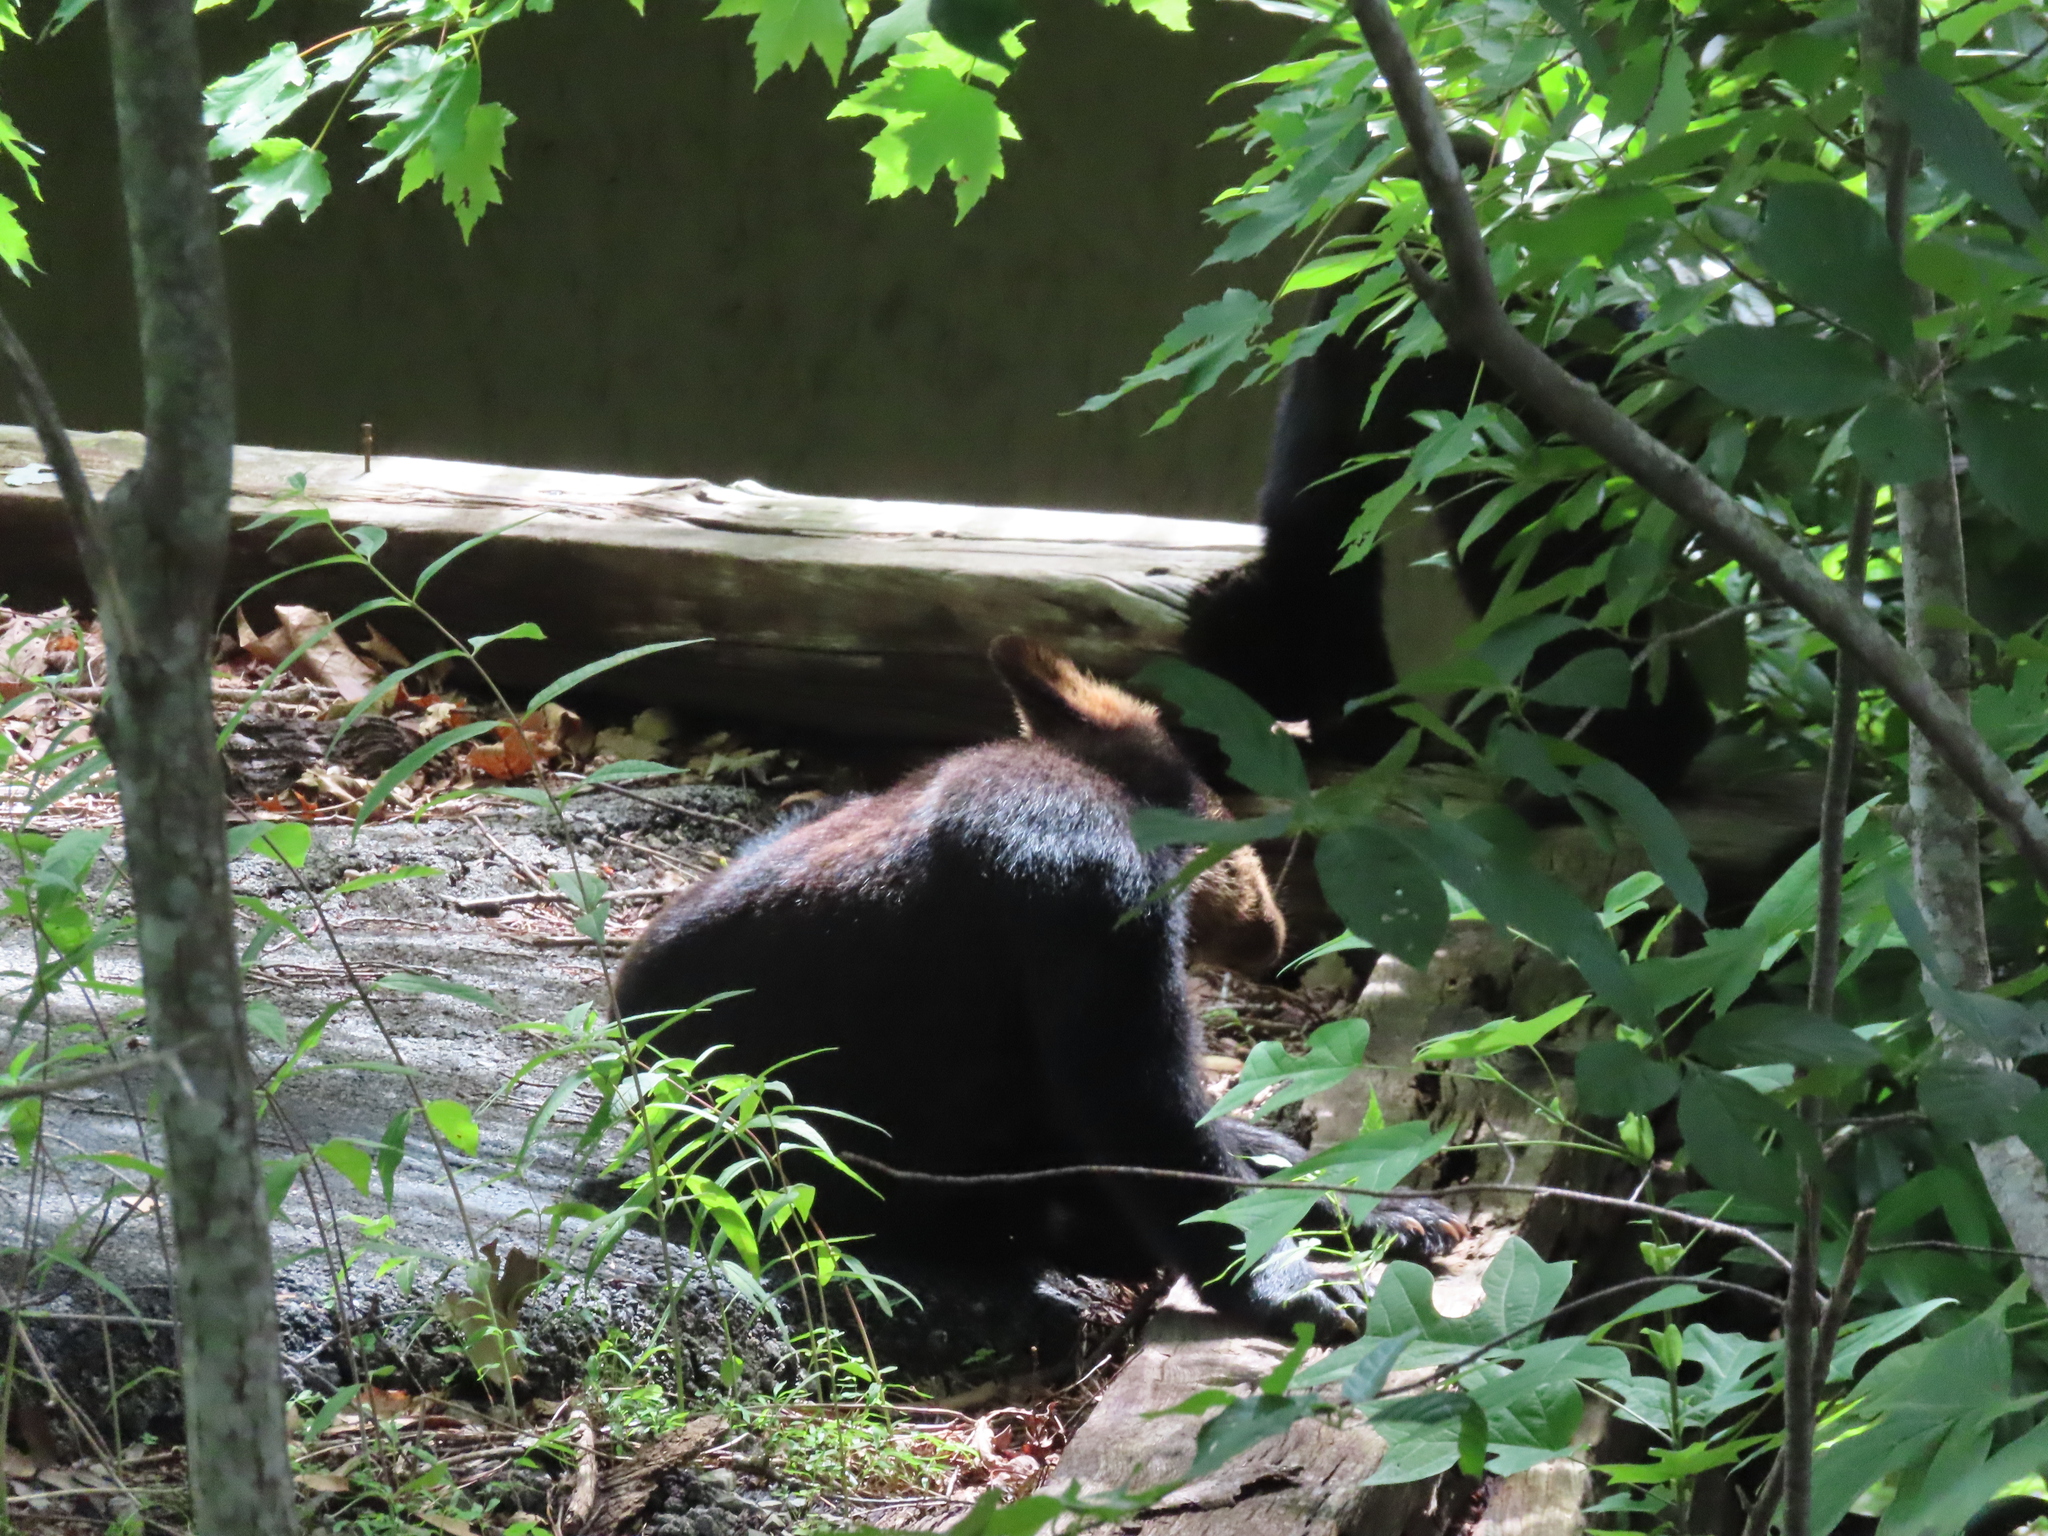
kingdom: Animalia
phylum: Chordata
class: Mammalia
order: Carnivora
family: Ursidae
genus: Ursus
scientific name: Ursus americanus
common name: American black bear
